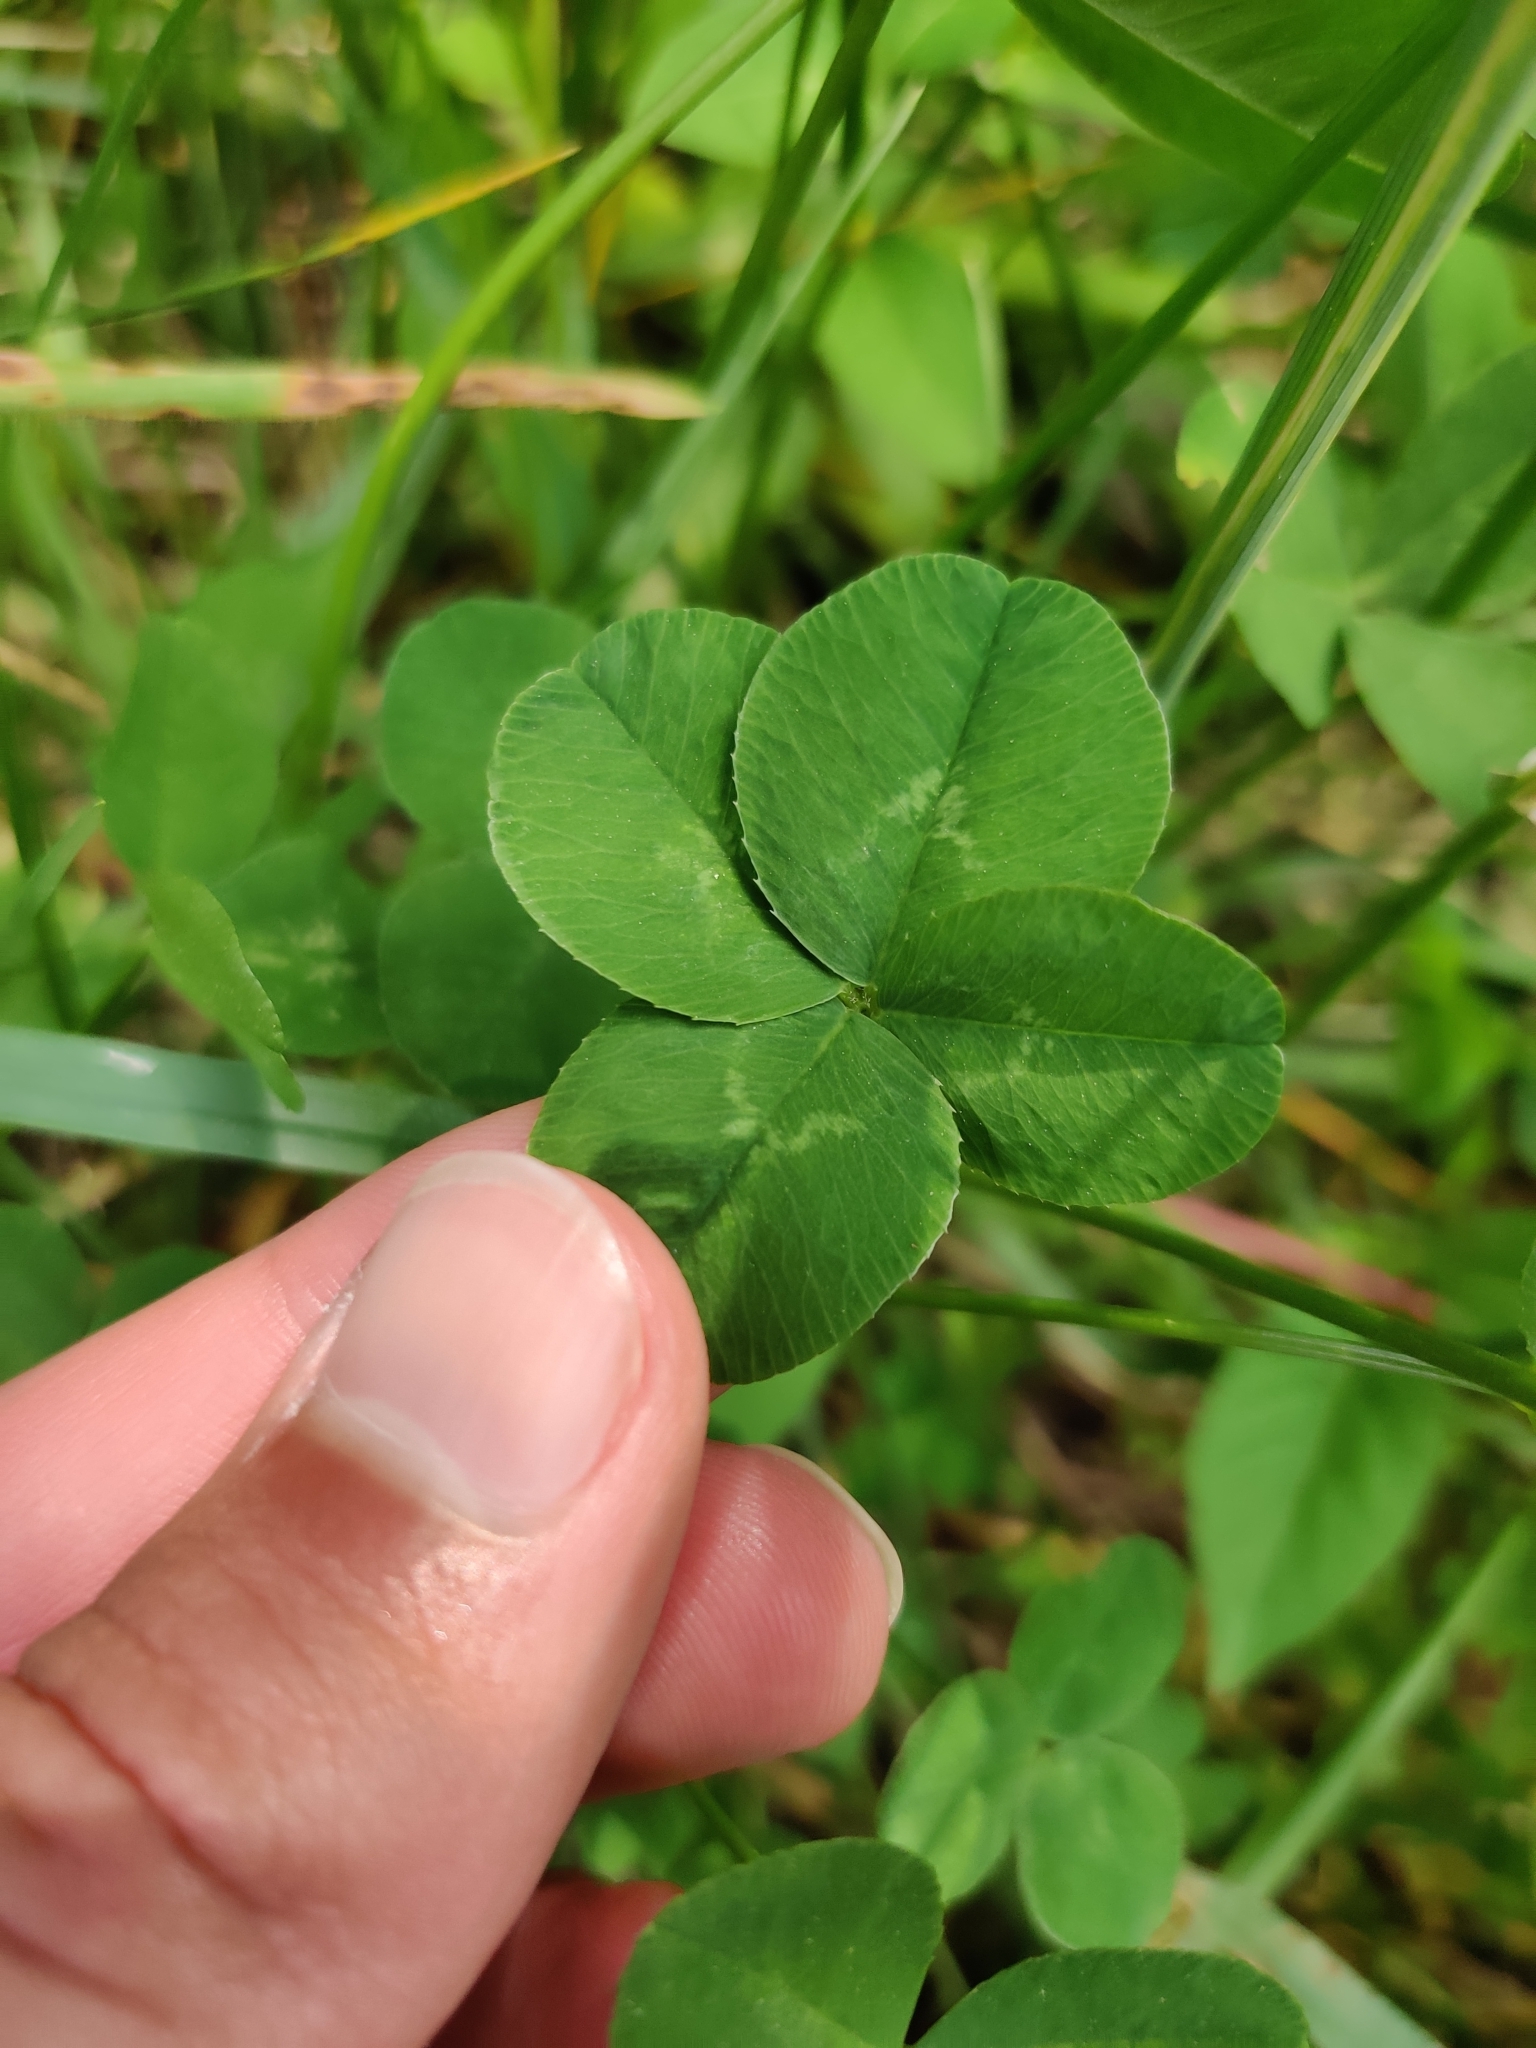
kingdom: Plantae
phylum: Tracheophyta
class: Magnoliopsida
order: Fabales
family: Fabaceae
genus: Trifolium
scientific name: Trifolium repens
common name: White clover
